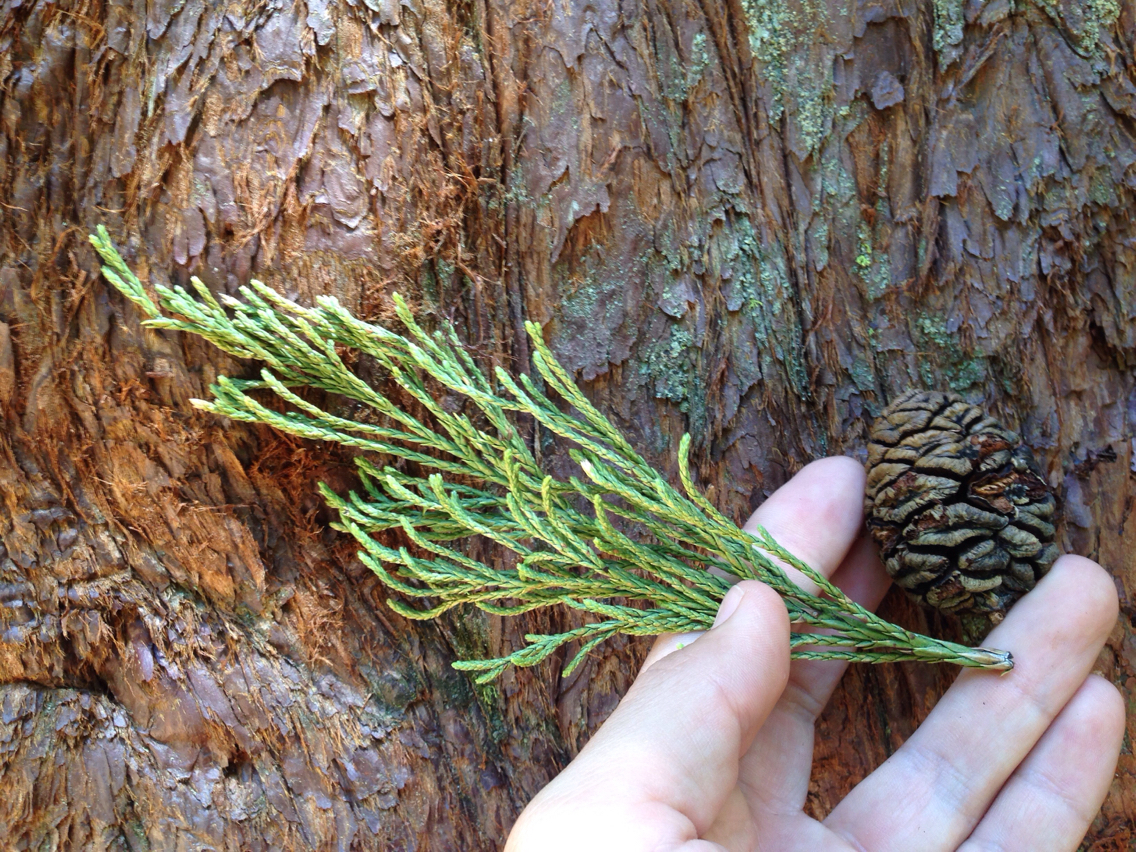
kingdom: Plantae
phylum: Tracheophyta
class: Pinopsida
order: Pinales
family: Cupressaceae
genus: Sequoiadendron
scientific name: Sequoiadendron giganteum
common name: Wellingtonia
